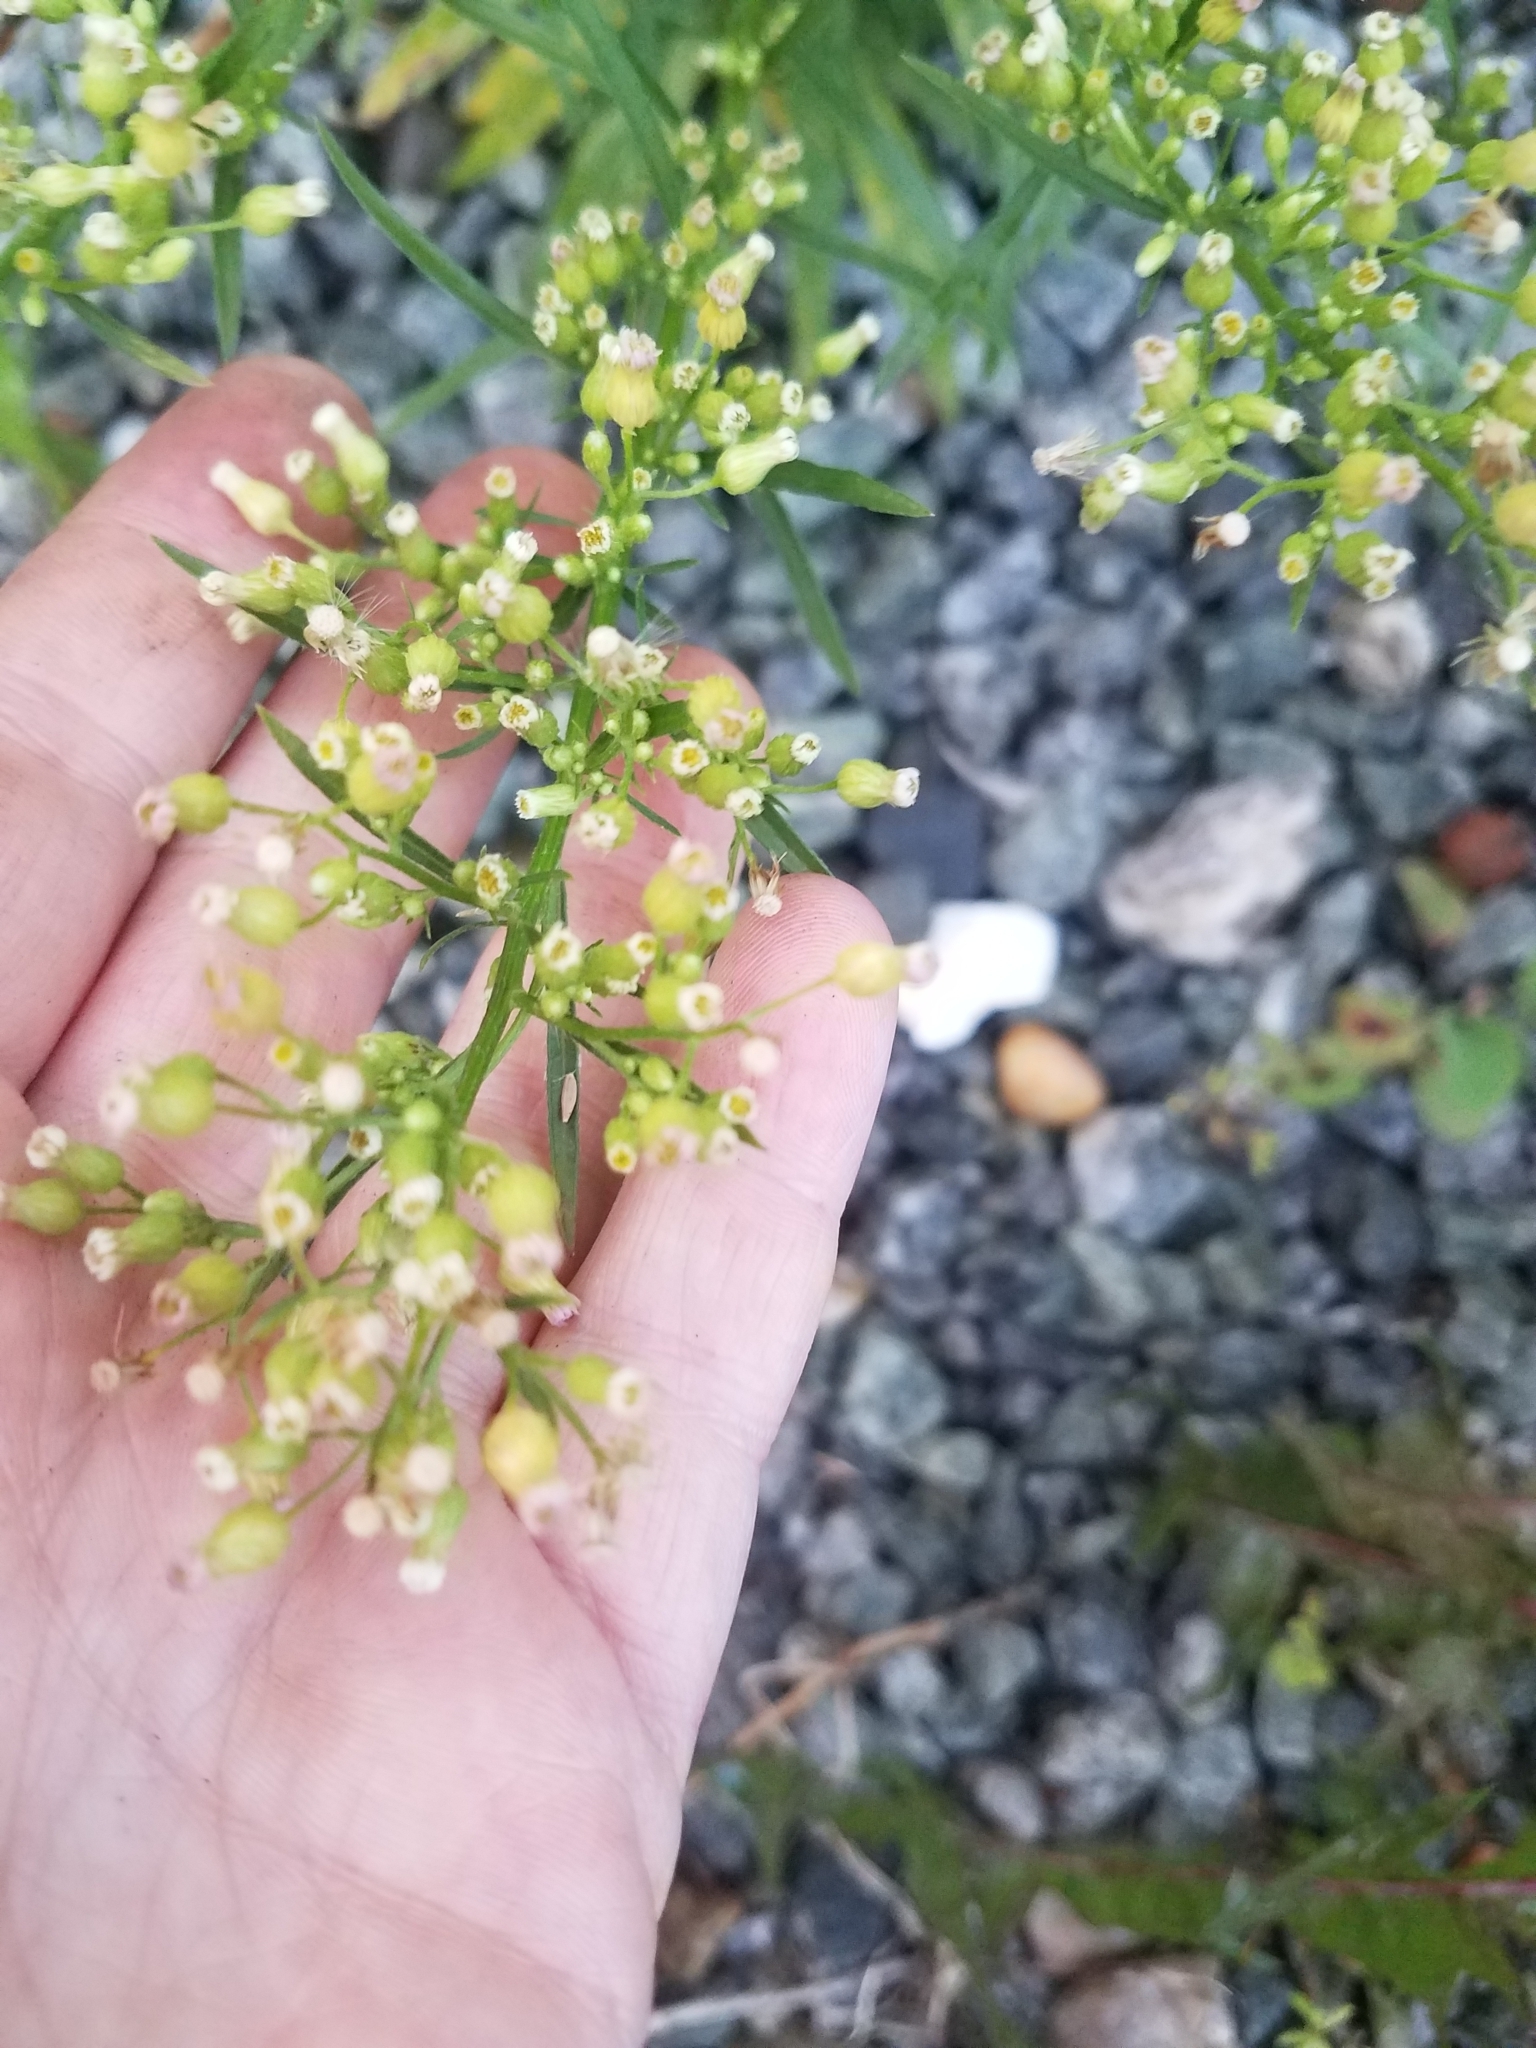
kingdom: Plantae
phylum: Tracheophyta
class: Magnoliopsida
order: Asterales
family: Asteraceae
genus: Erigeron
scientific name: Erigeron canadensis
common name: Canadian fleabane
